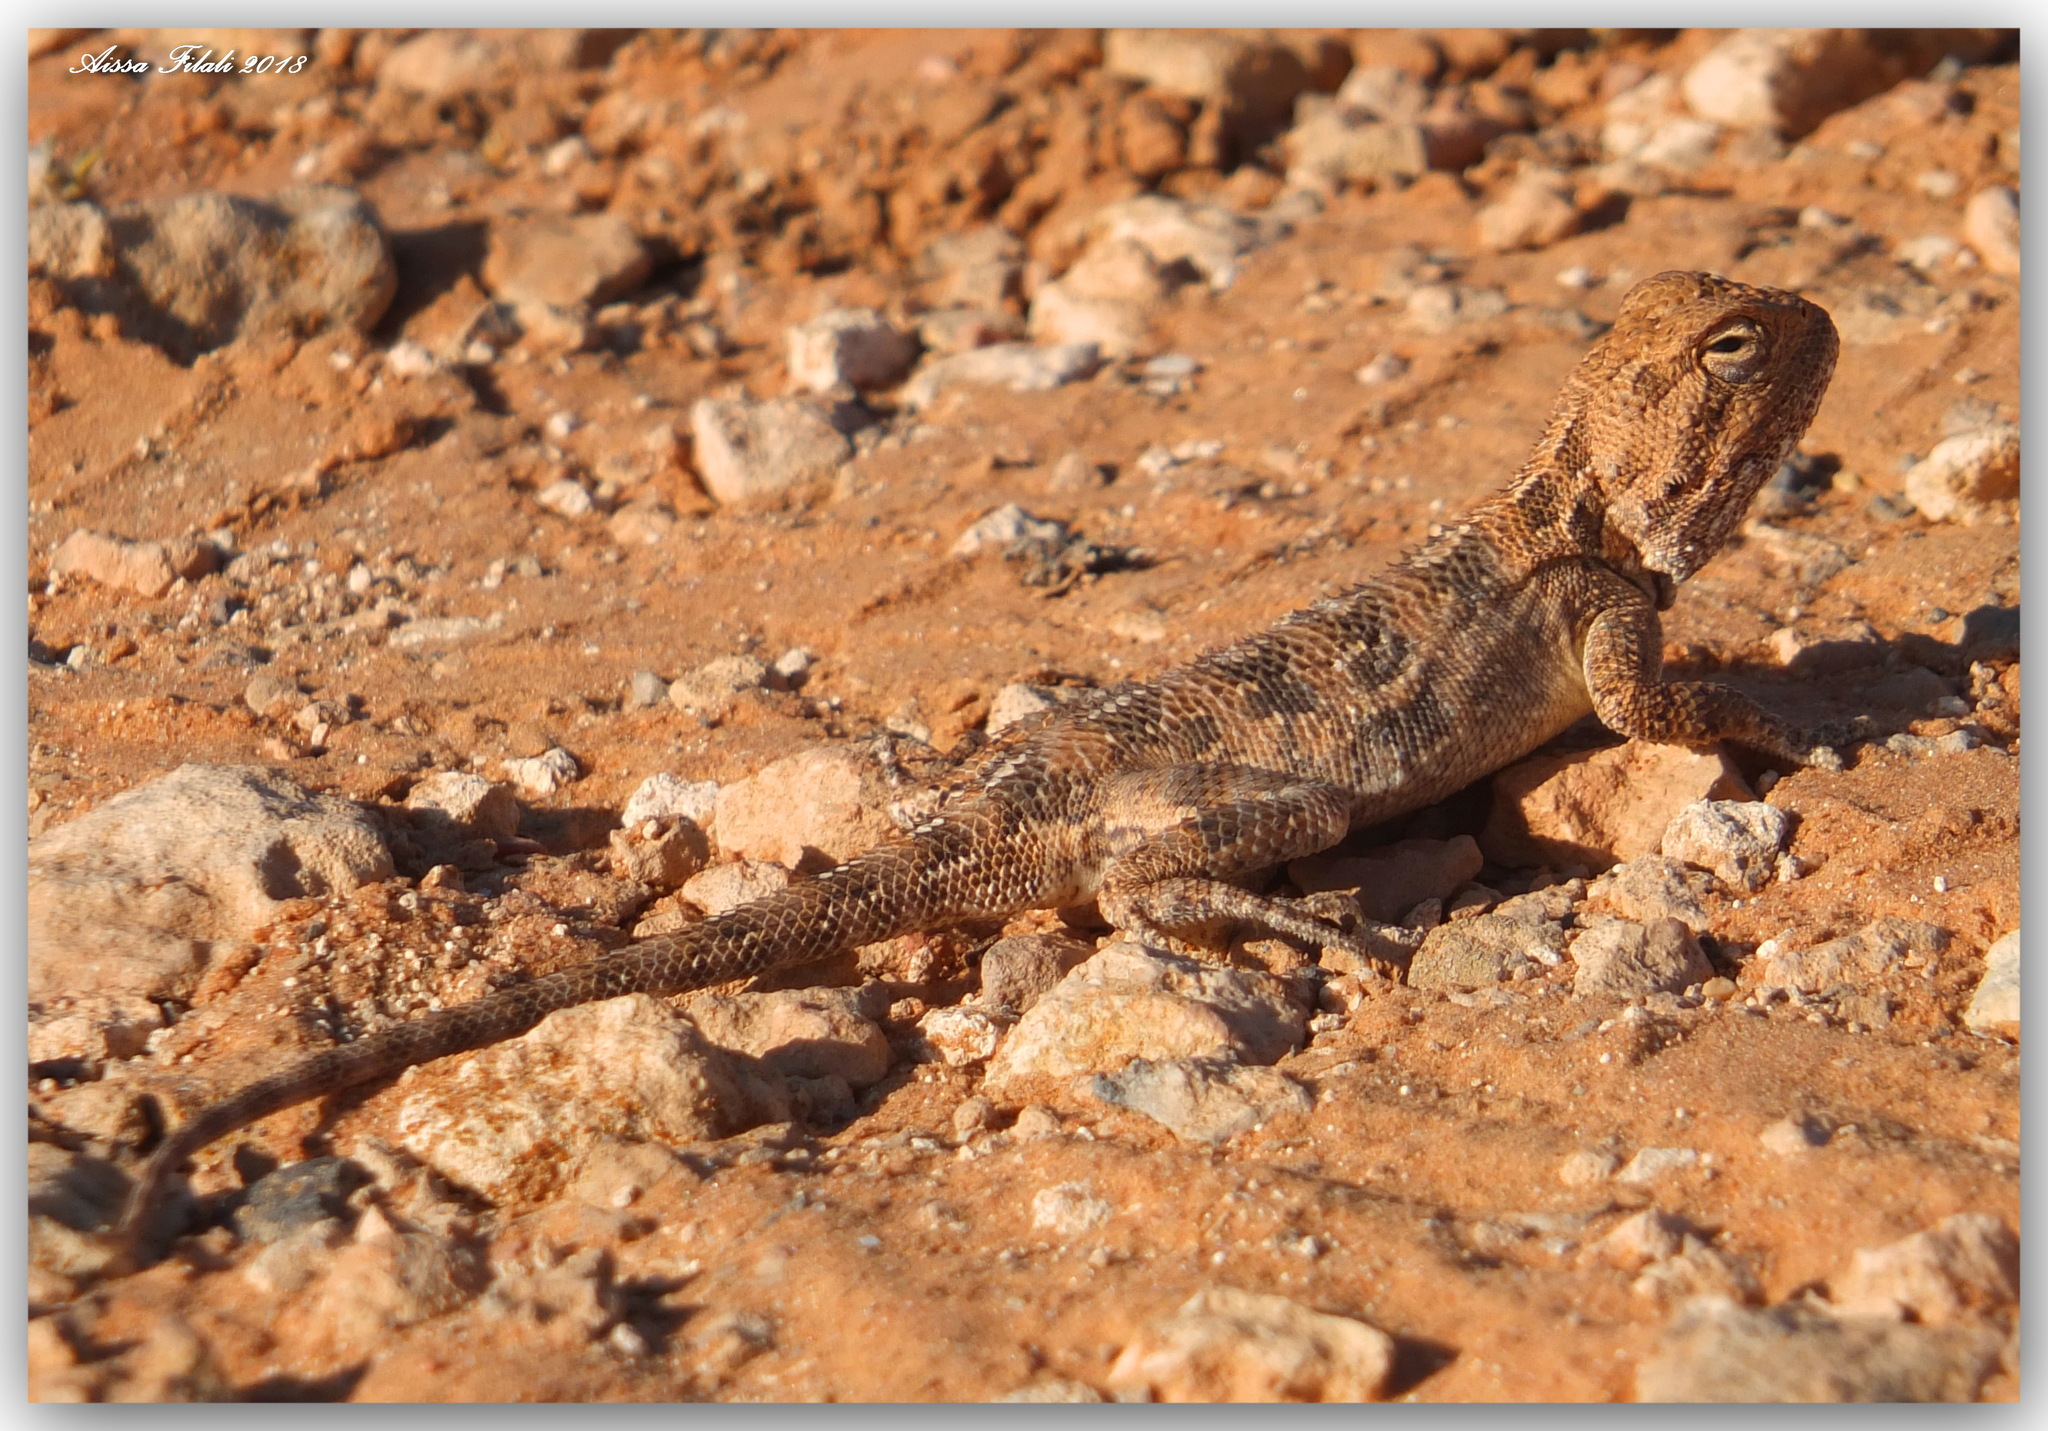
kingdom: Animalia
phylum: Chordata
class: Squamata
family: Agamidae
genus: Trapelus
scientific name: Trapelus mutabilis
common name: Desert agama
